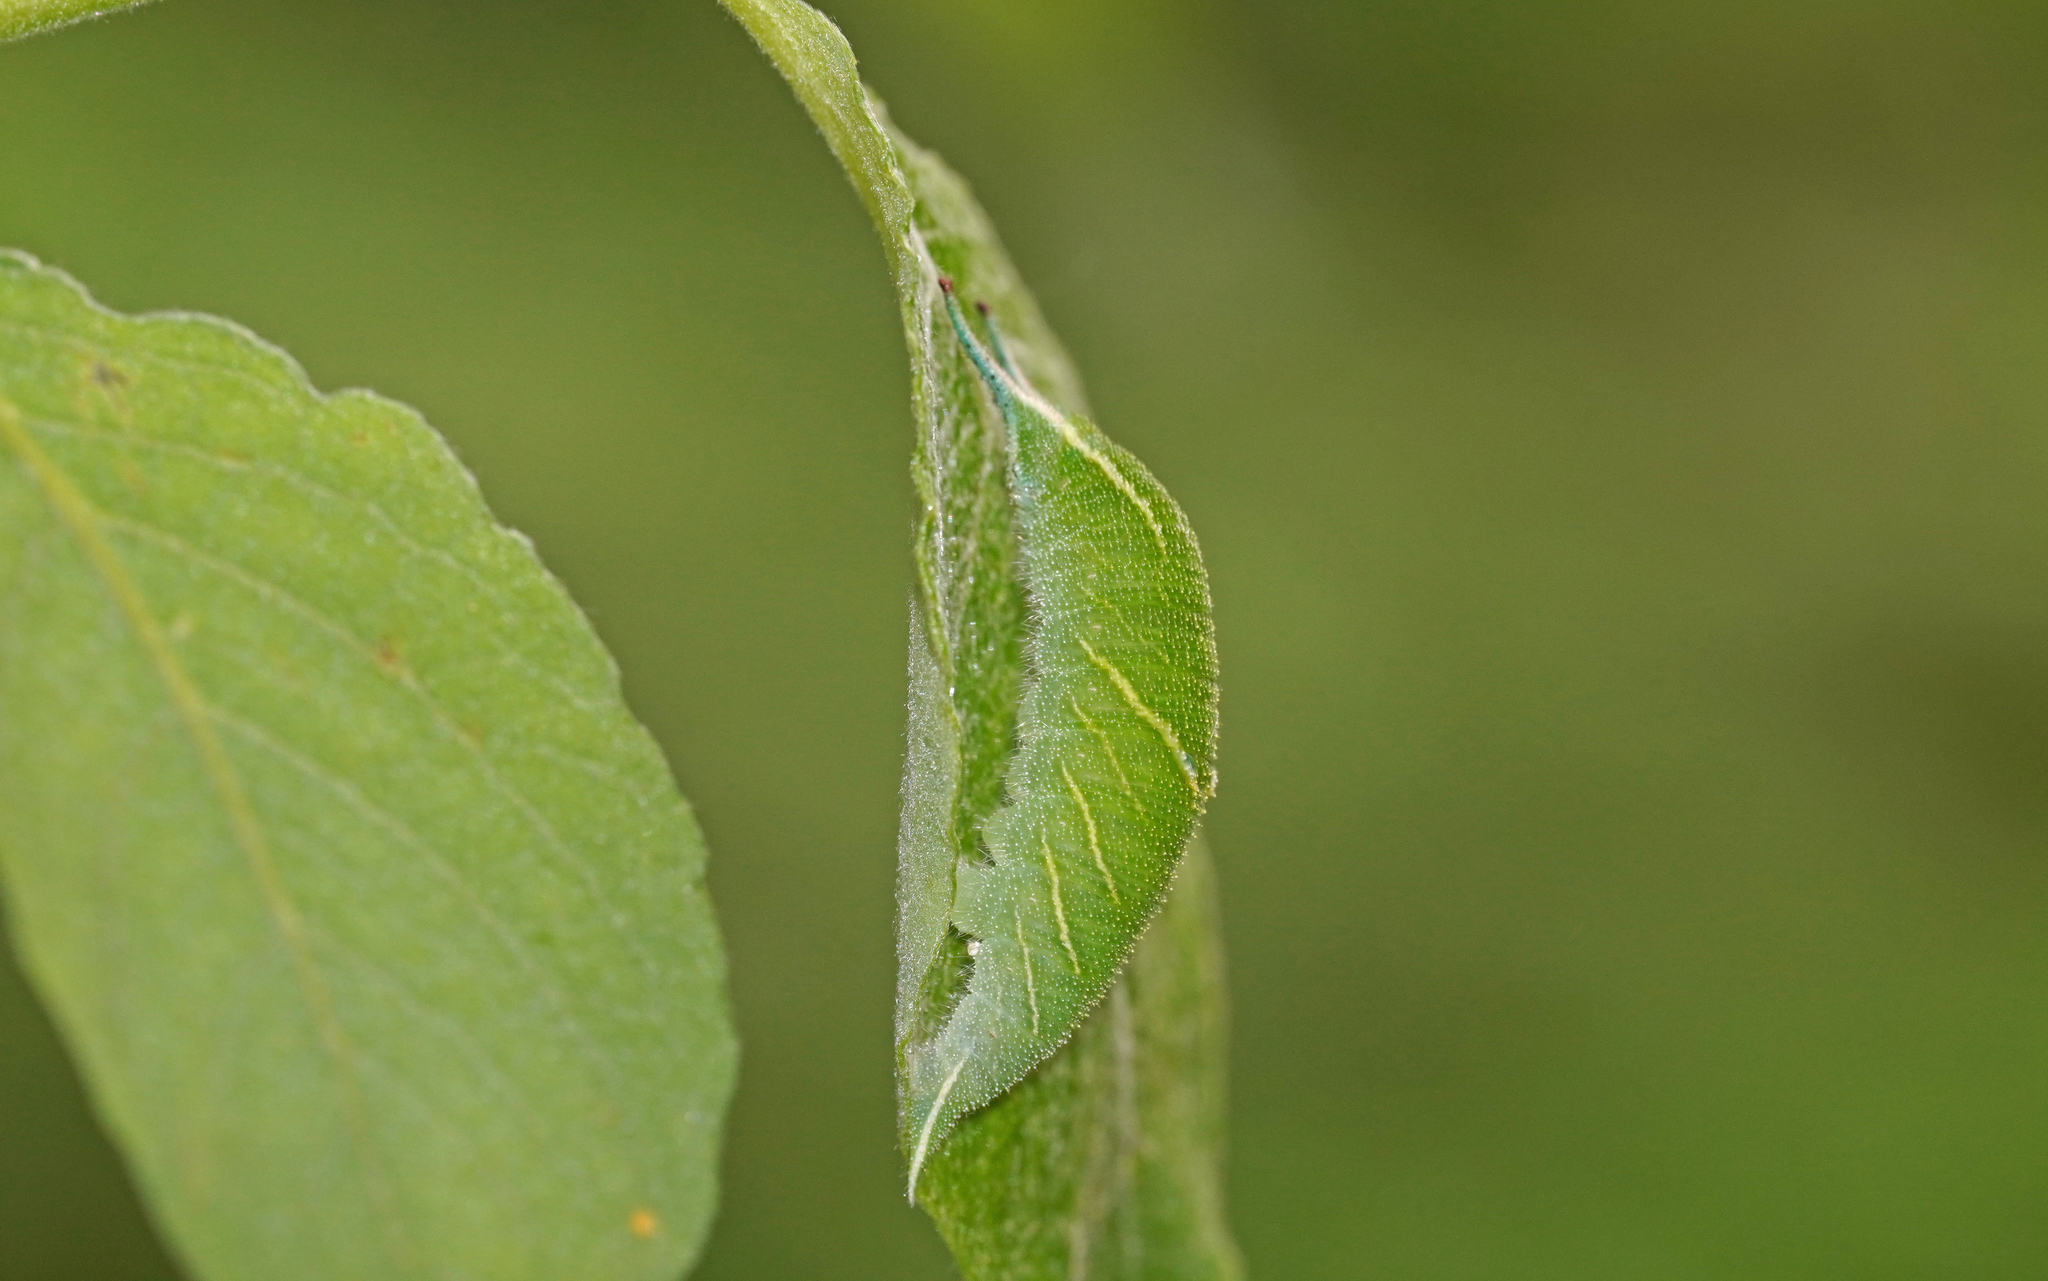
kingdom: Animalia
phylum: Arthropoda
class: Insecta
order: Lepidoptera
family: Nymphalidae
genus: Apatura
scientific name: Apatura iris
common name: Purple emperor
